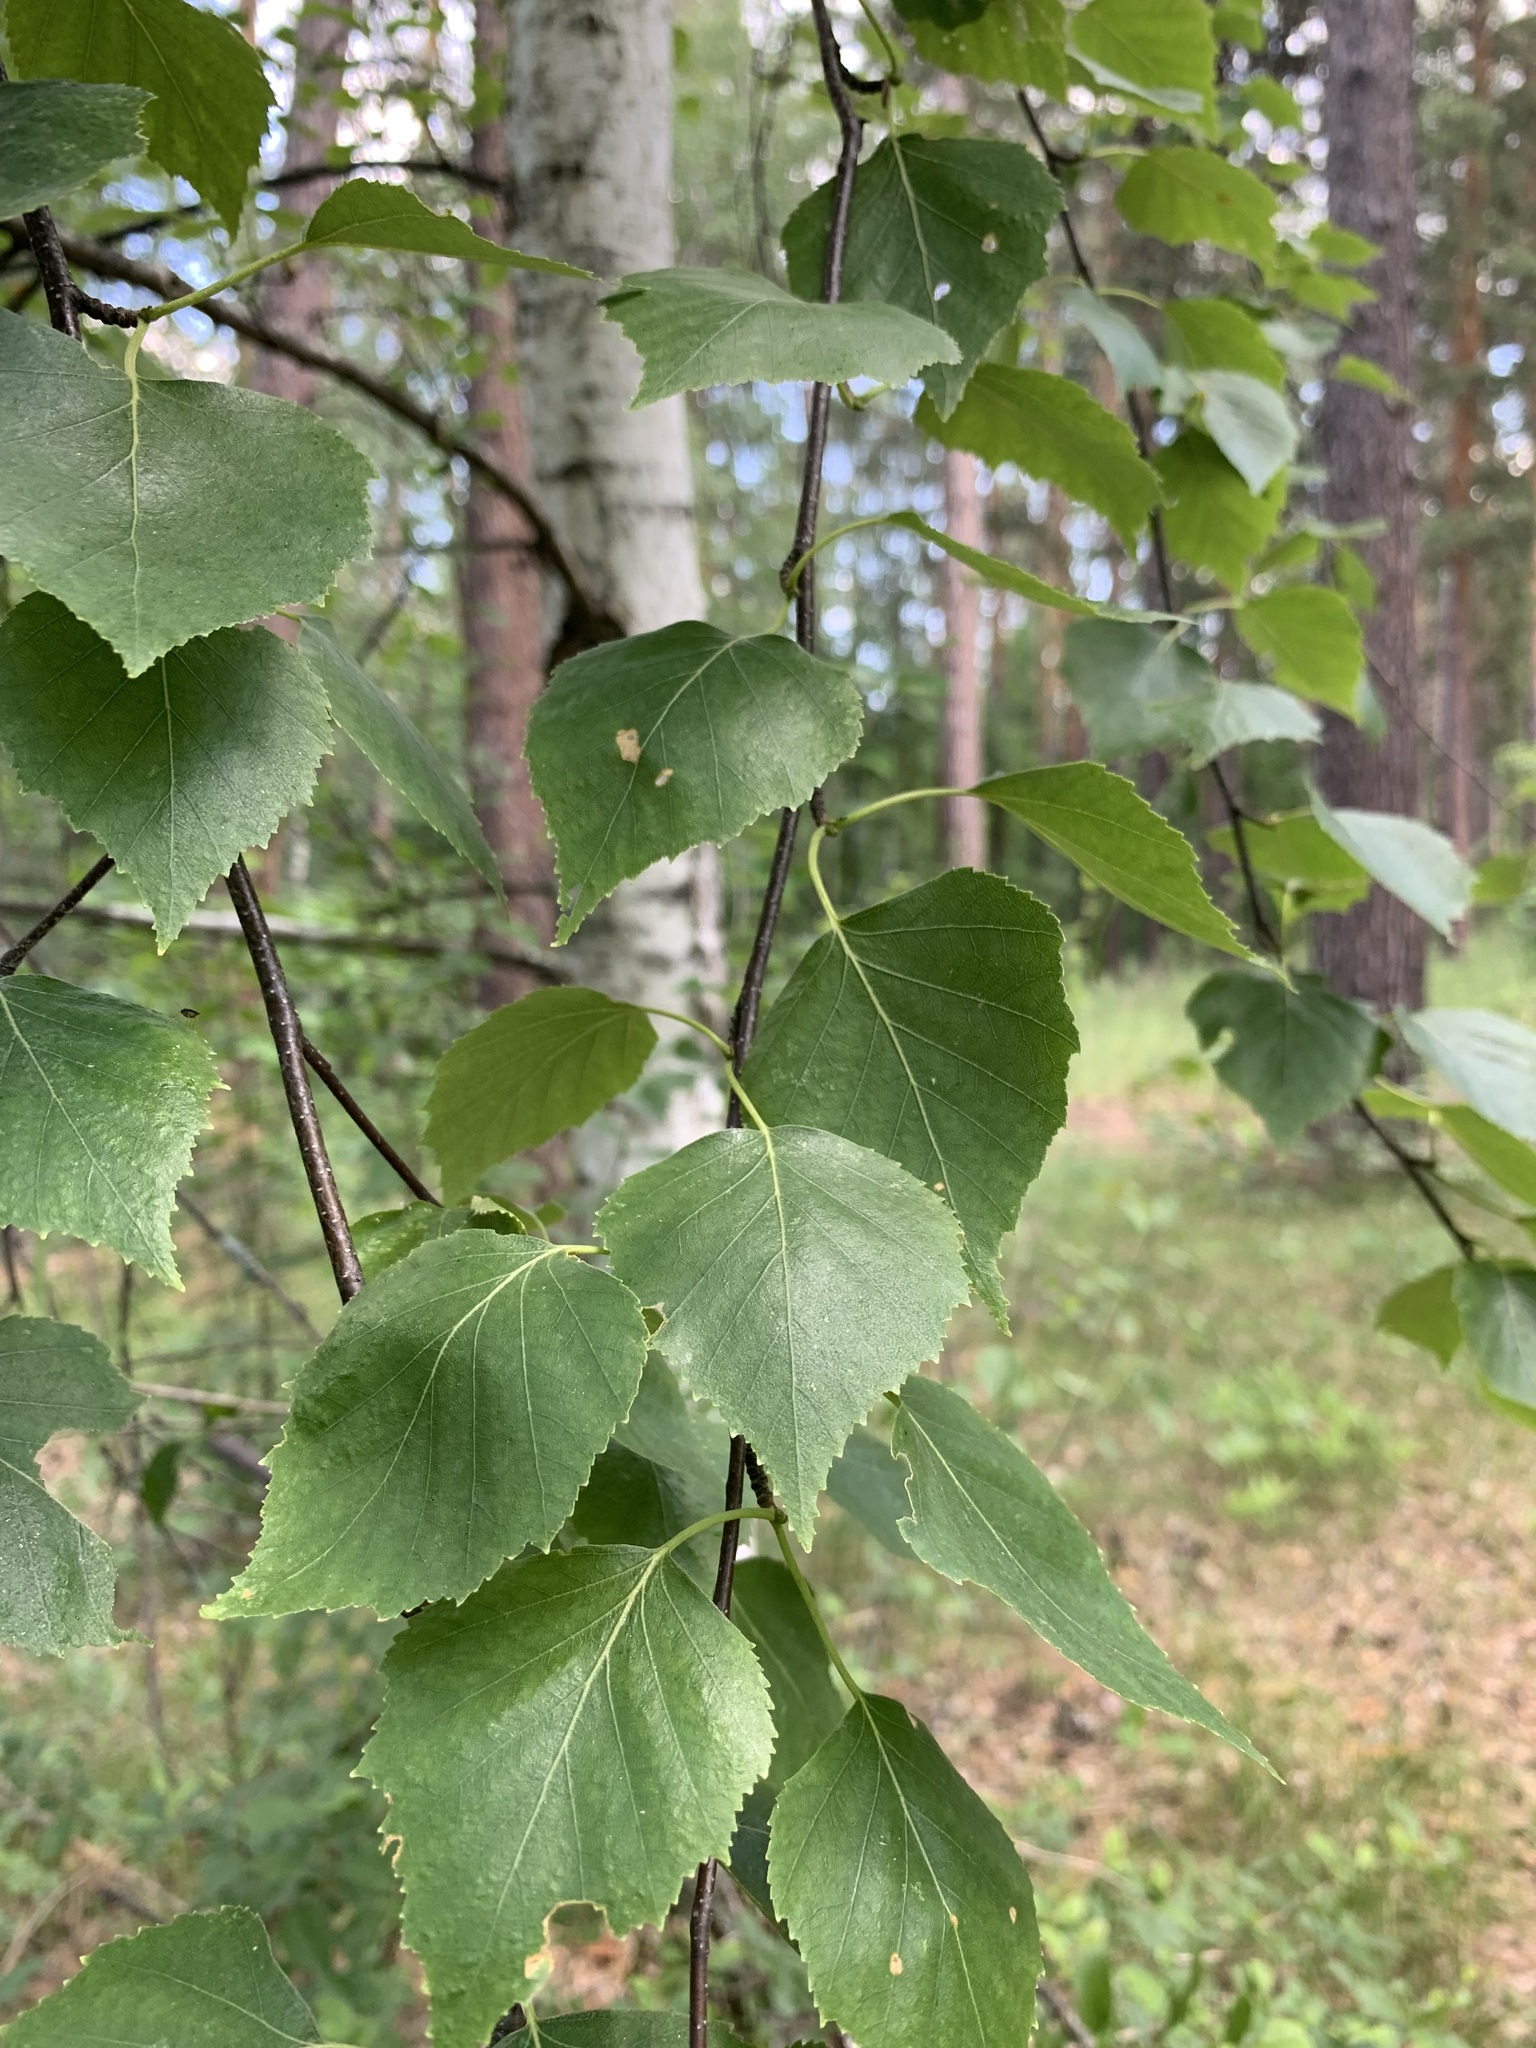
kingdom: Plantae
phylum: Tracheophyta
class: Magnoliopsida
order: Fagales
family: Betulaceae
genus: Betula
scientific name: Betula pendula
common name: Silver birch
